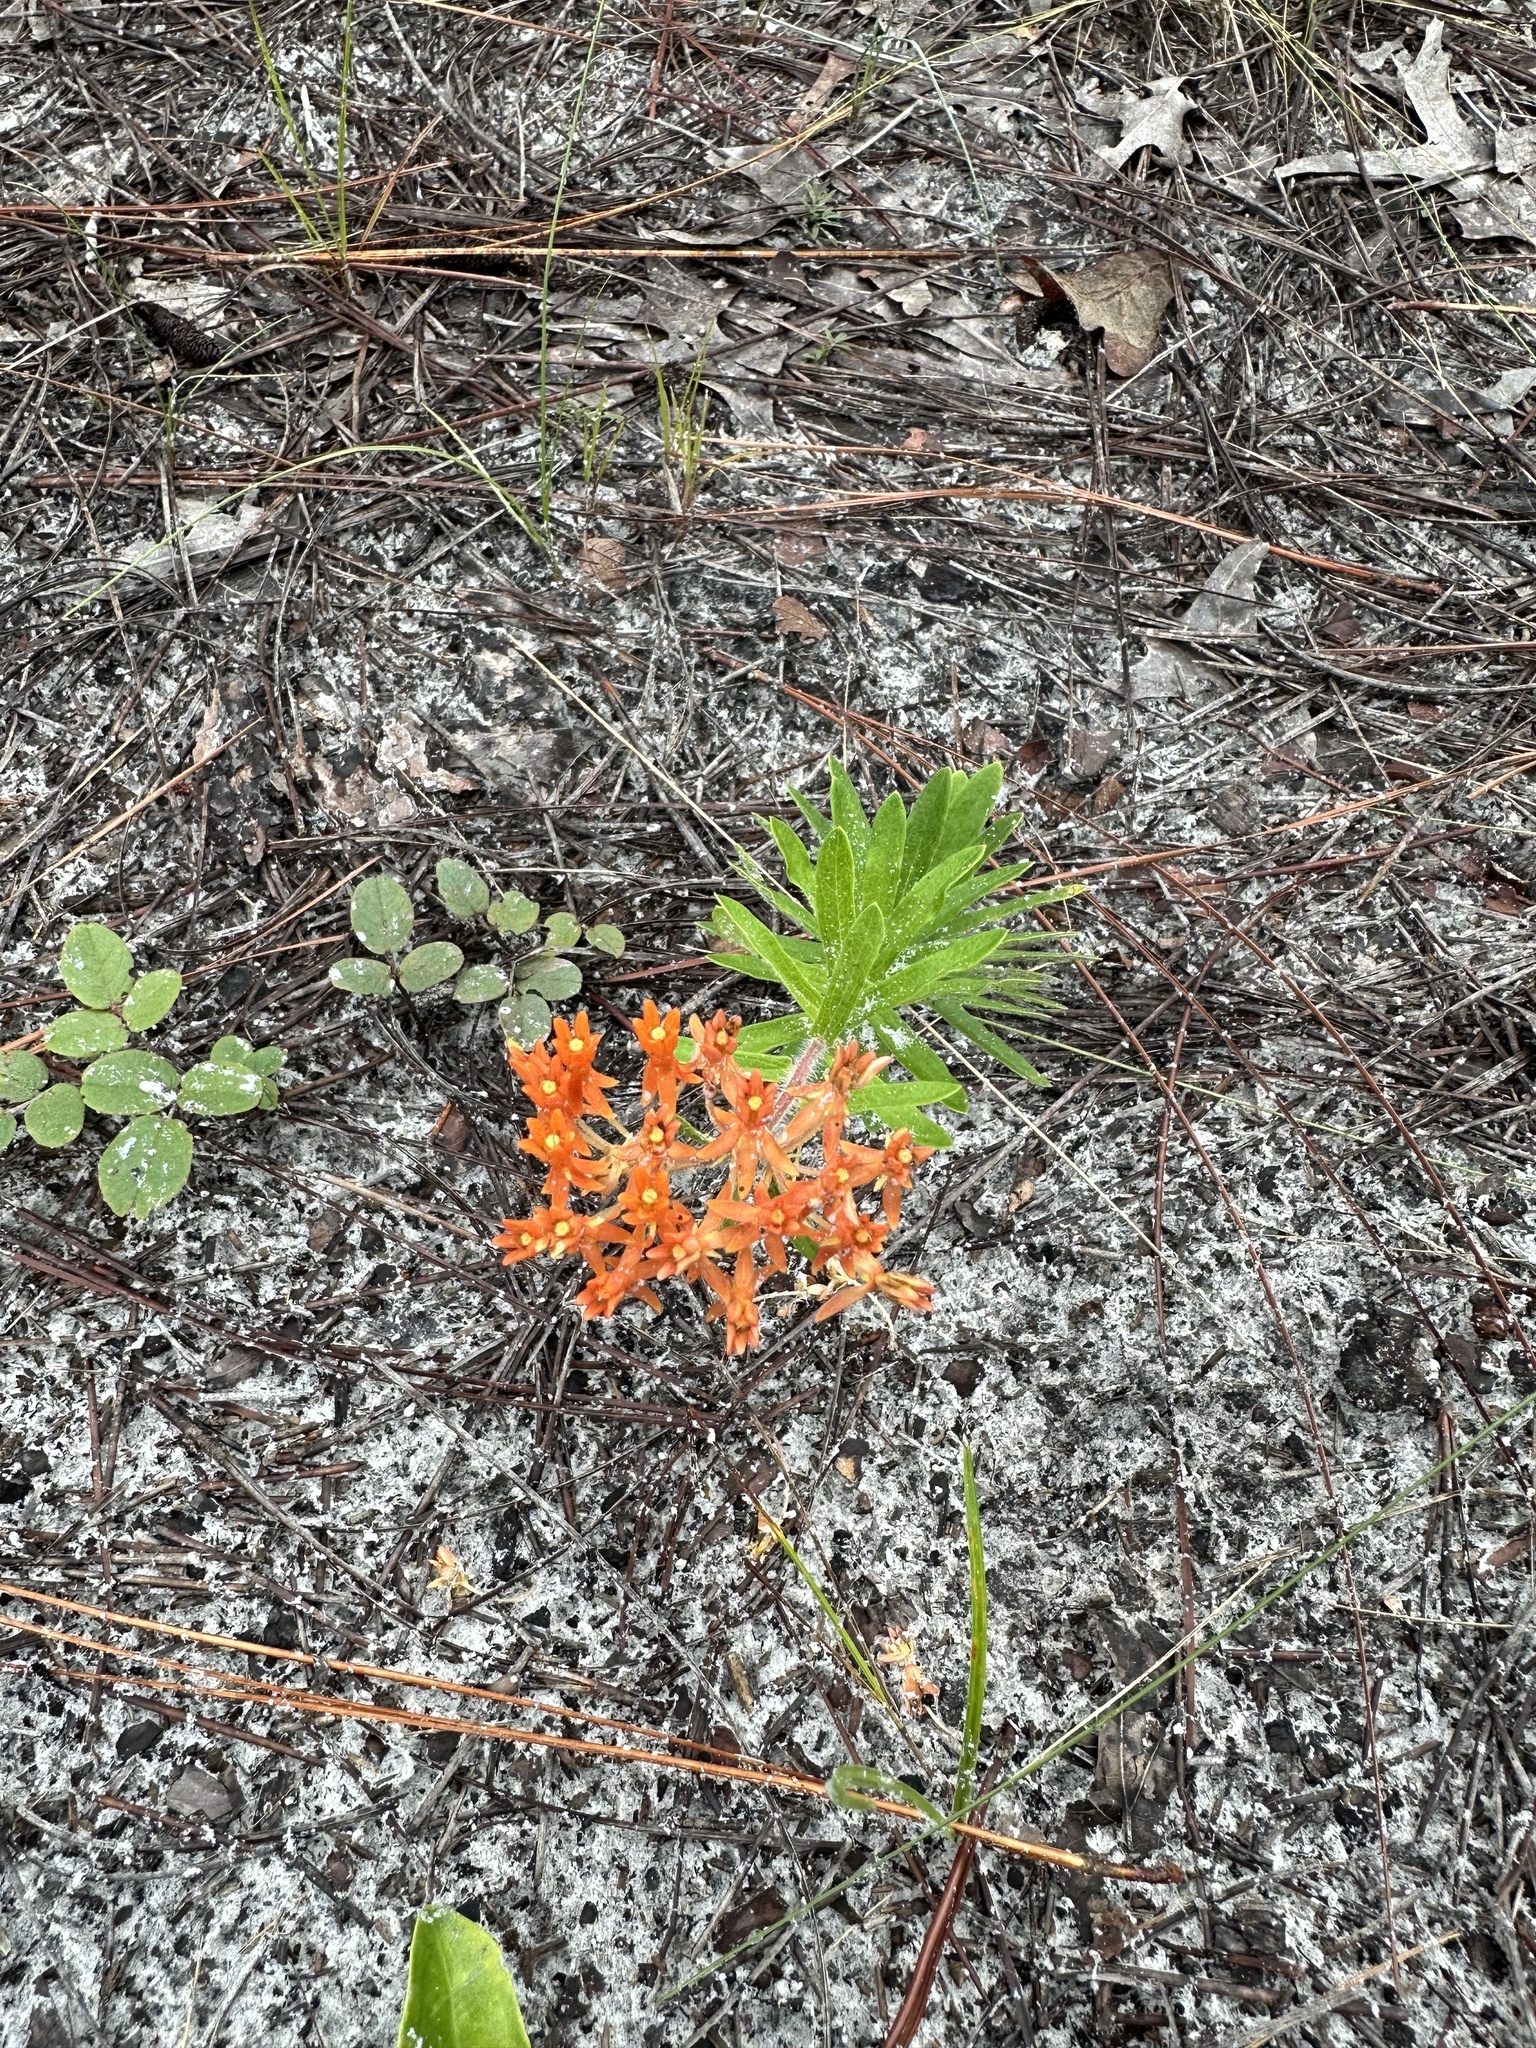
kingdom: Plantae
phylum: Tracheophyta
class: Magnoliopsida
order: Gentianales
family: Apocynaceae
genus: Asclepias
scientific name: Asclepias tuberosa
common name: Butterfly milkweed
